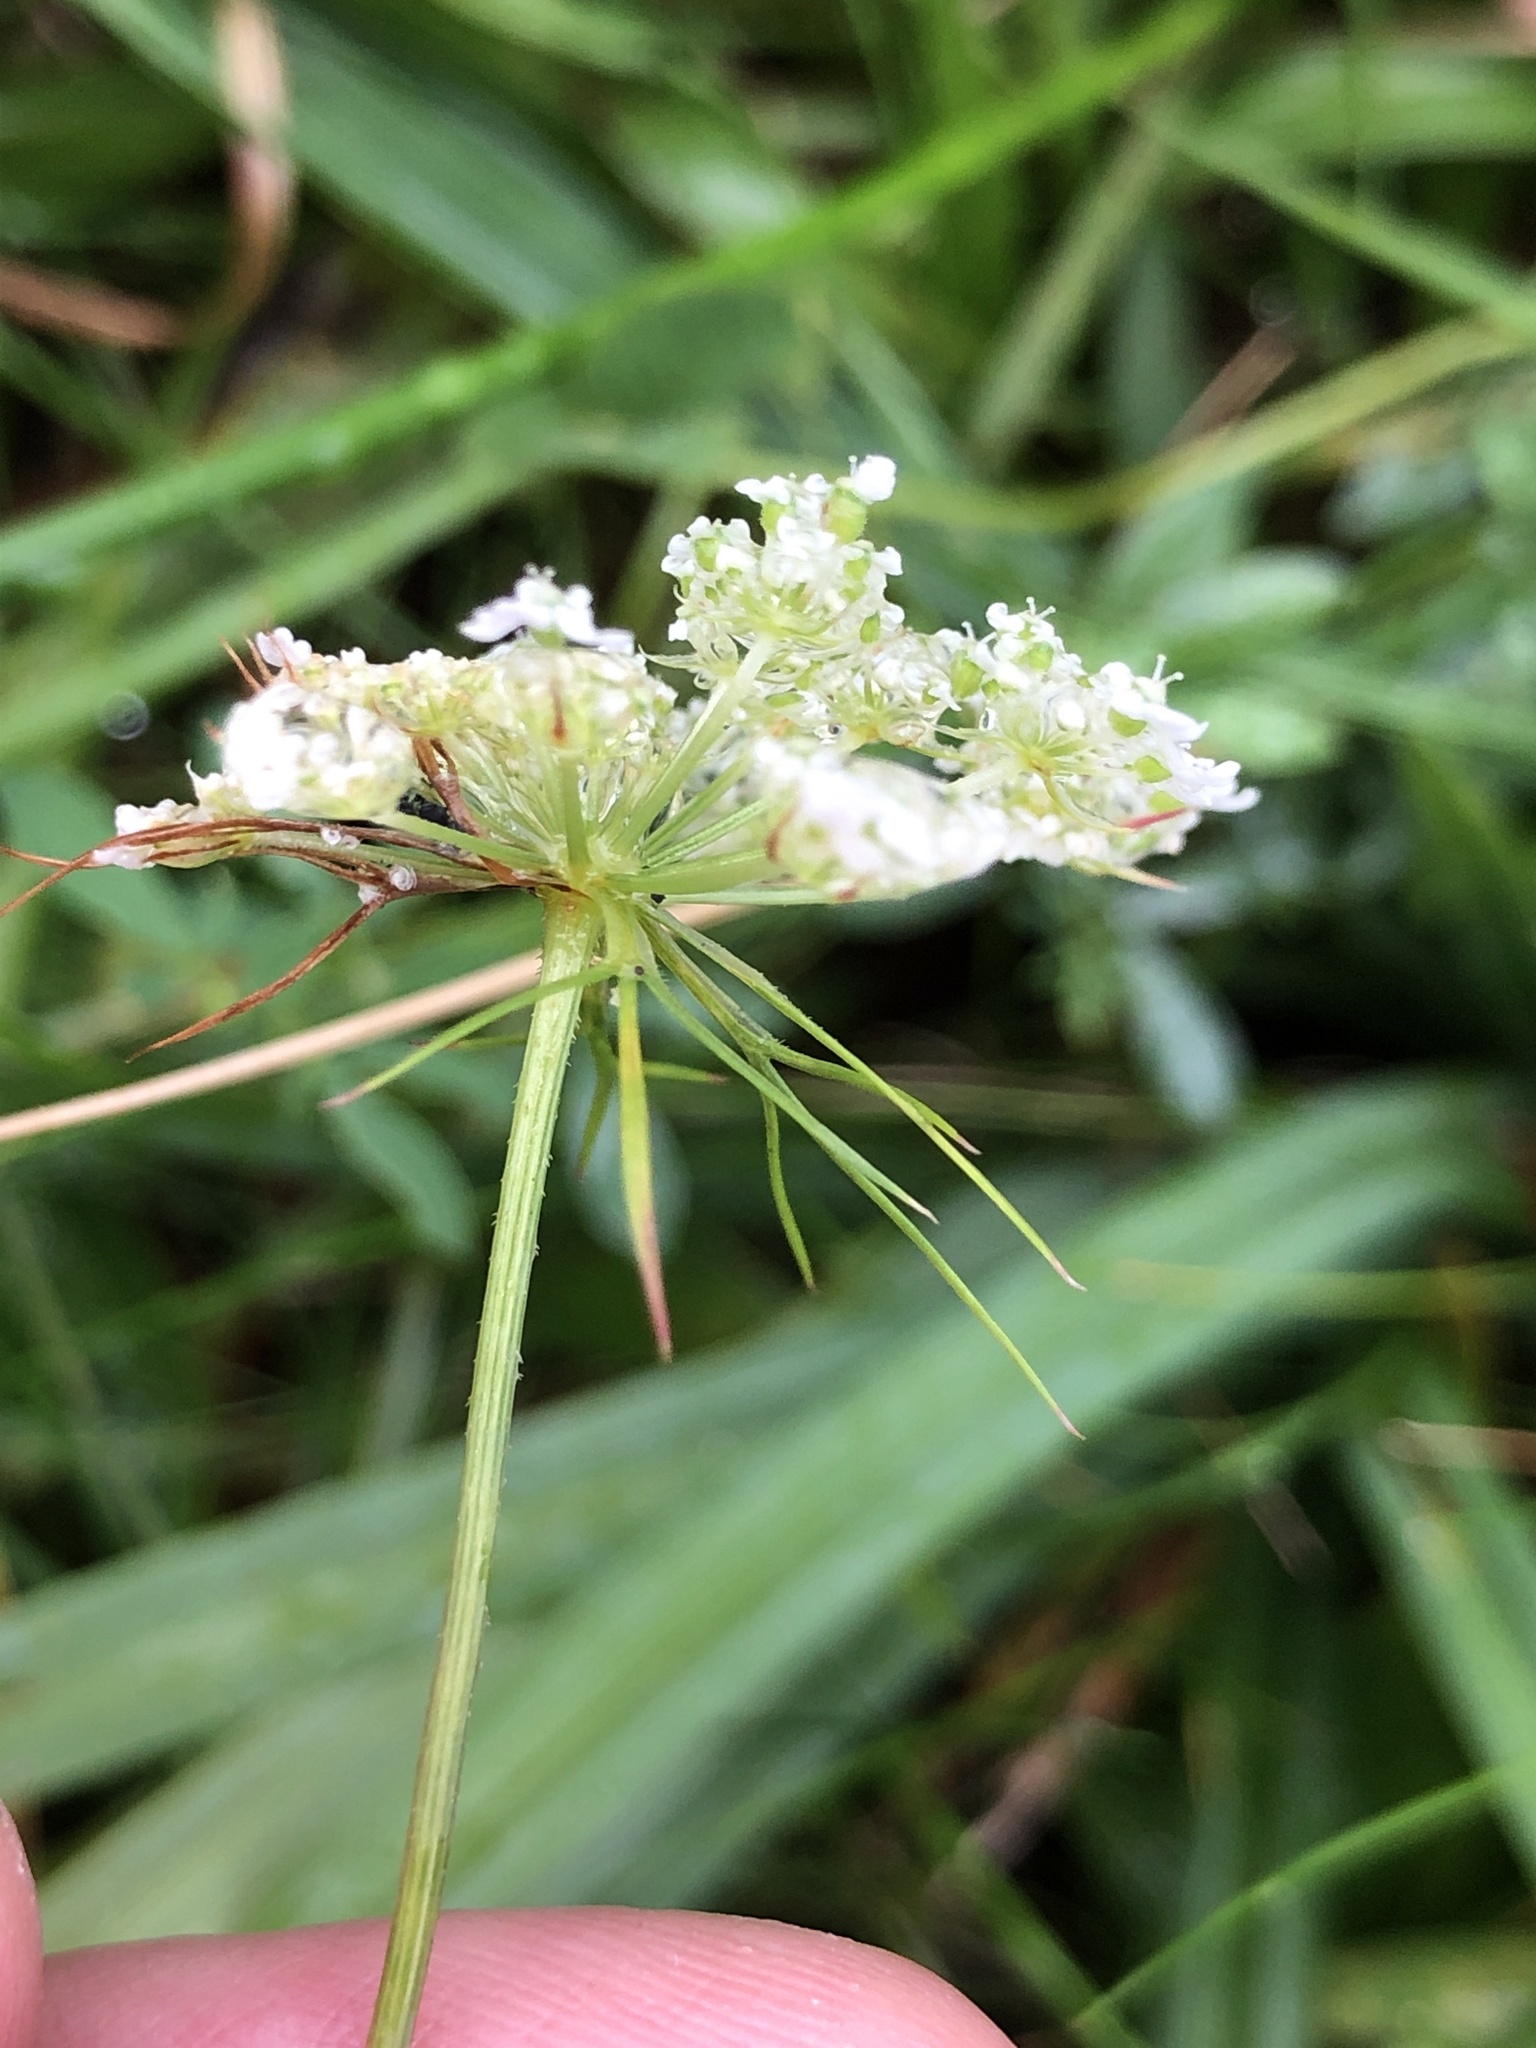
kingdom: Plantae
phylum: Tracheophyta
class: Magnoliopsida
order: Apiales
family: Apiaceae
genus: Daucus
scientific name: Daucus carota
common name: Wild carrot
